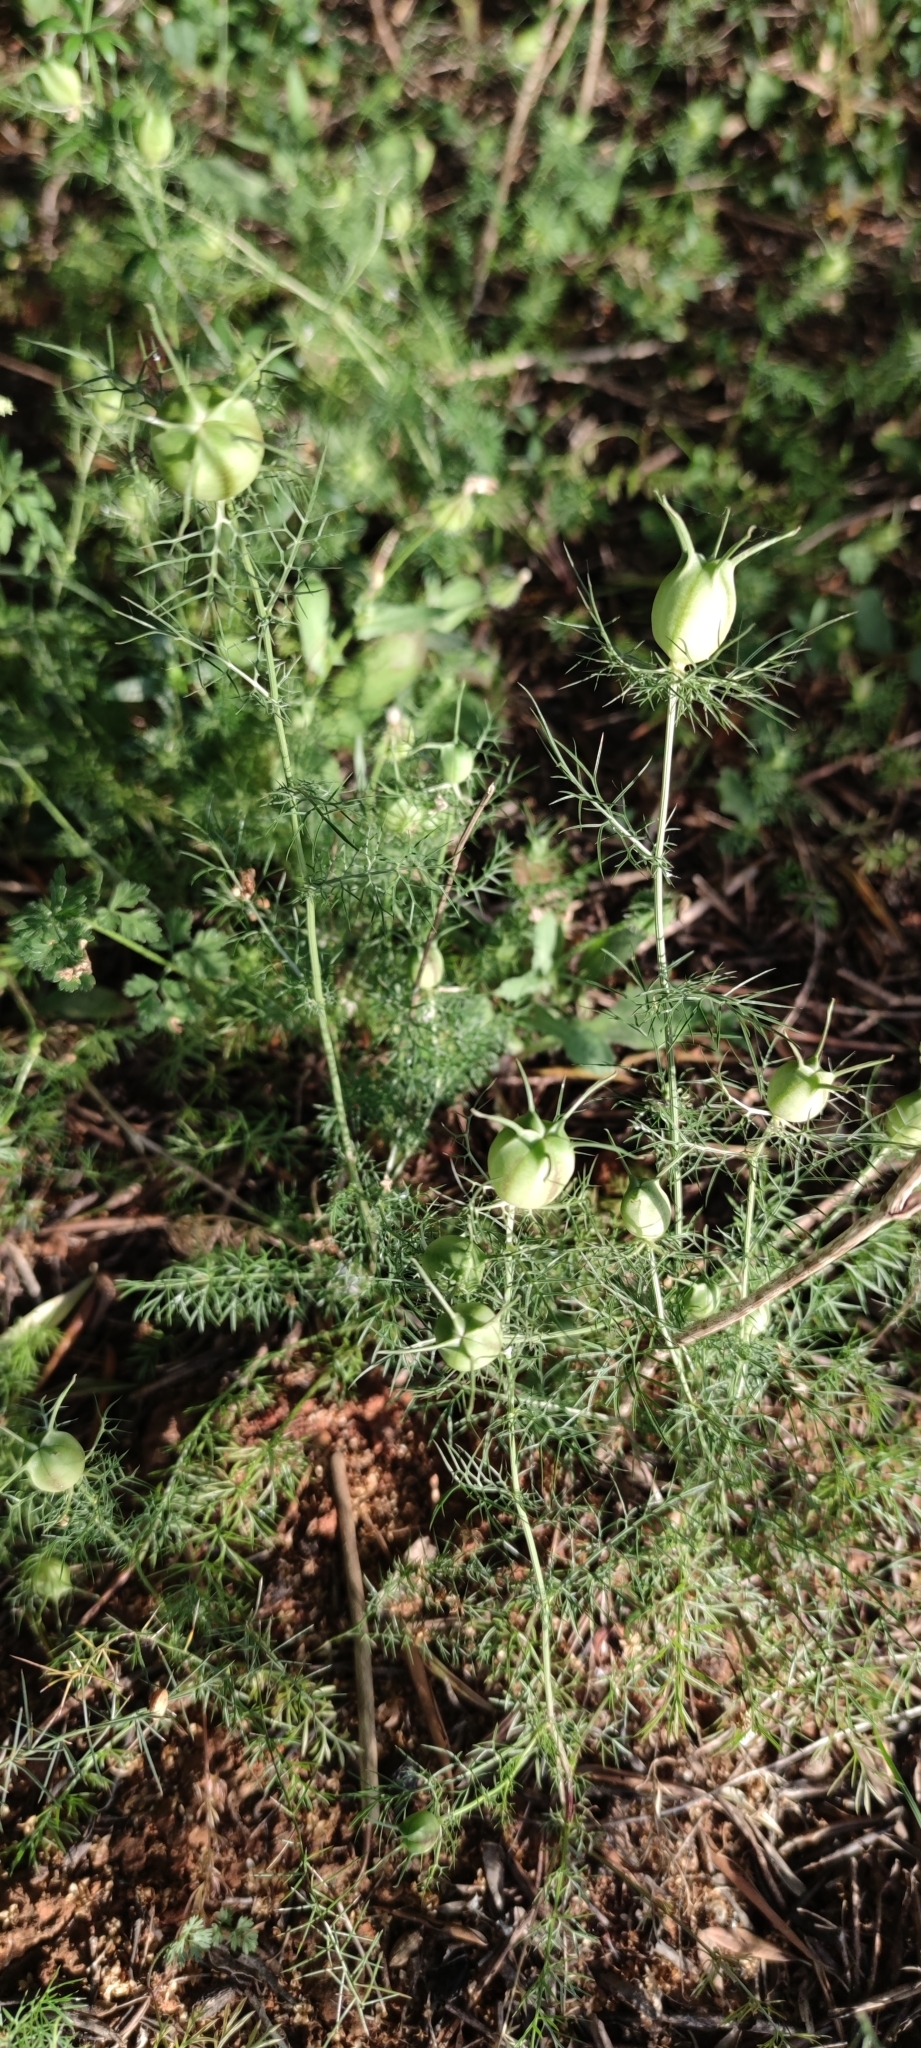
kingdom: Plantae
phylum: Tracheophyta
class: Magnoliopsida
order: Ranunculales
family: Ranunculaceae
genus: Nigella
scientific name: Nigella damascena
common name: Love-in-a-mist
